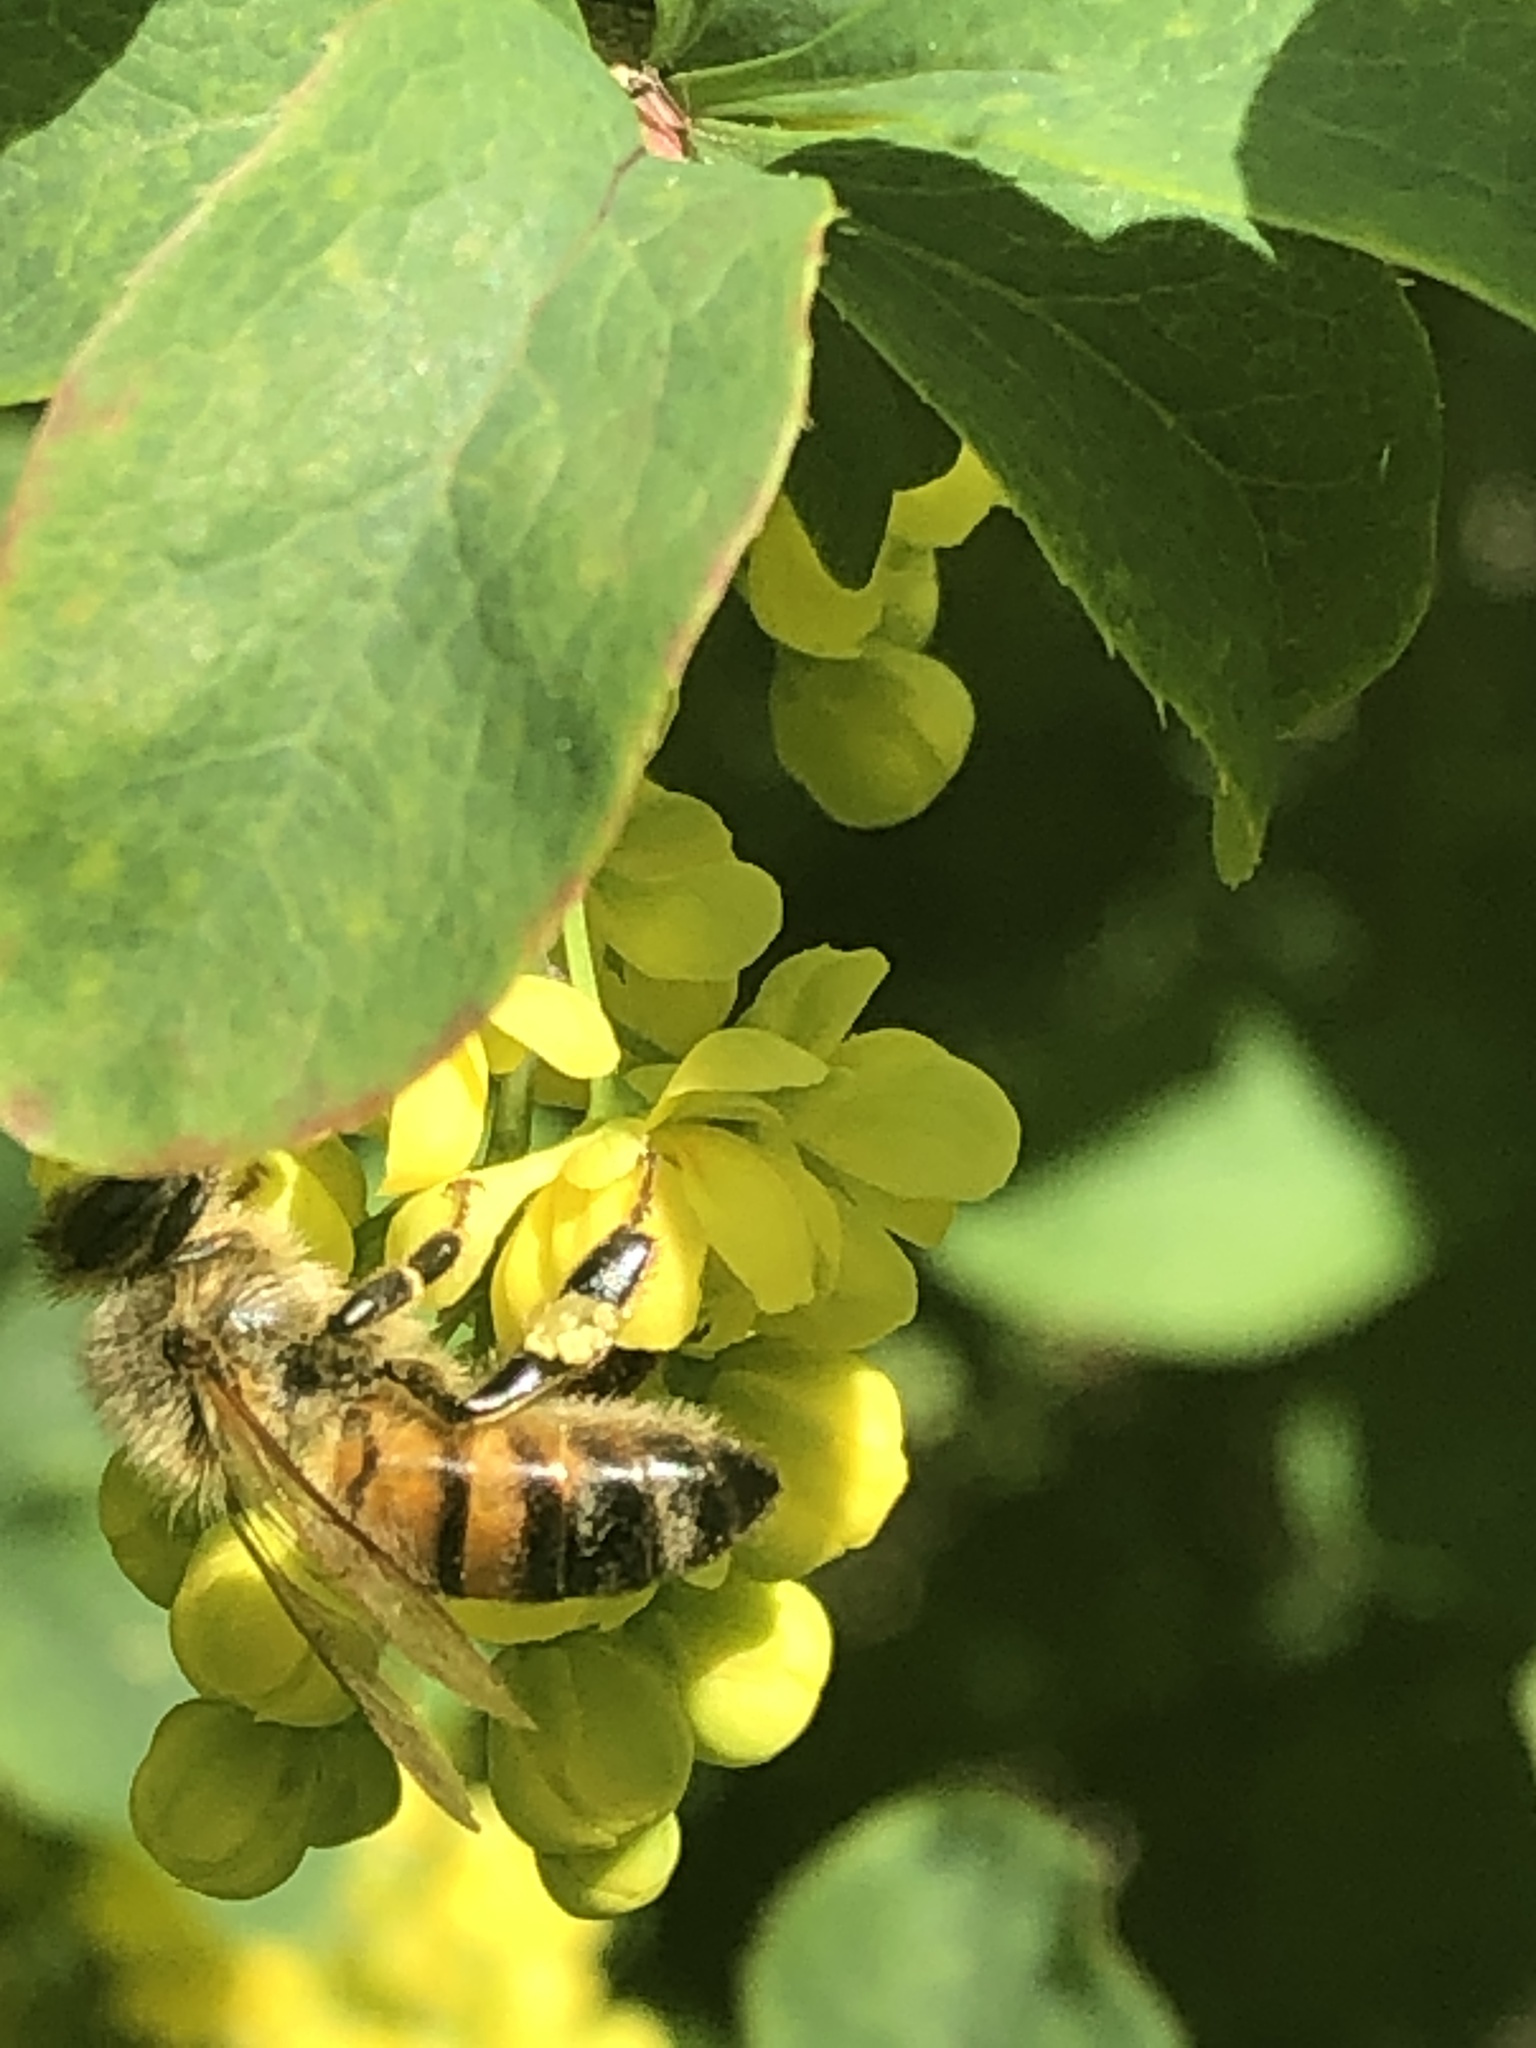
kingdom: Animalia
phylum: Arthropoda
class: Insecta
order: Hymenoptera
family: Apidae
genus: Apis
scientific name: Apis mellifera
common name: Honey bee
